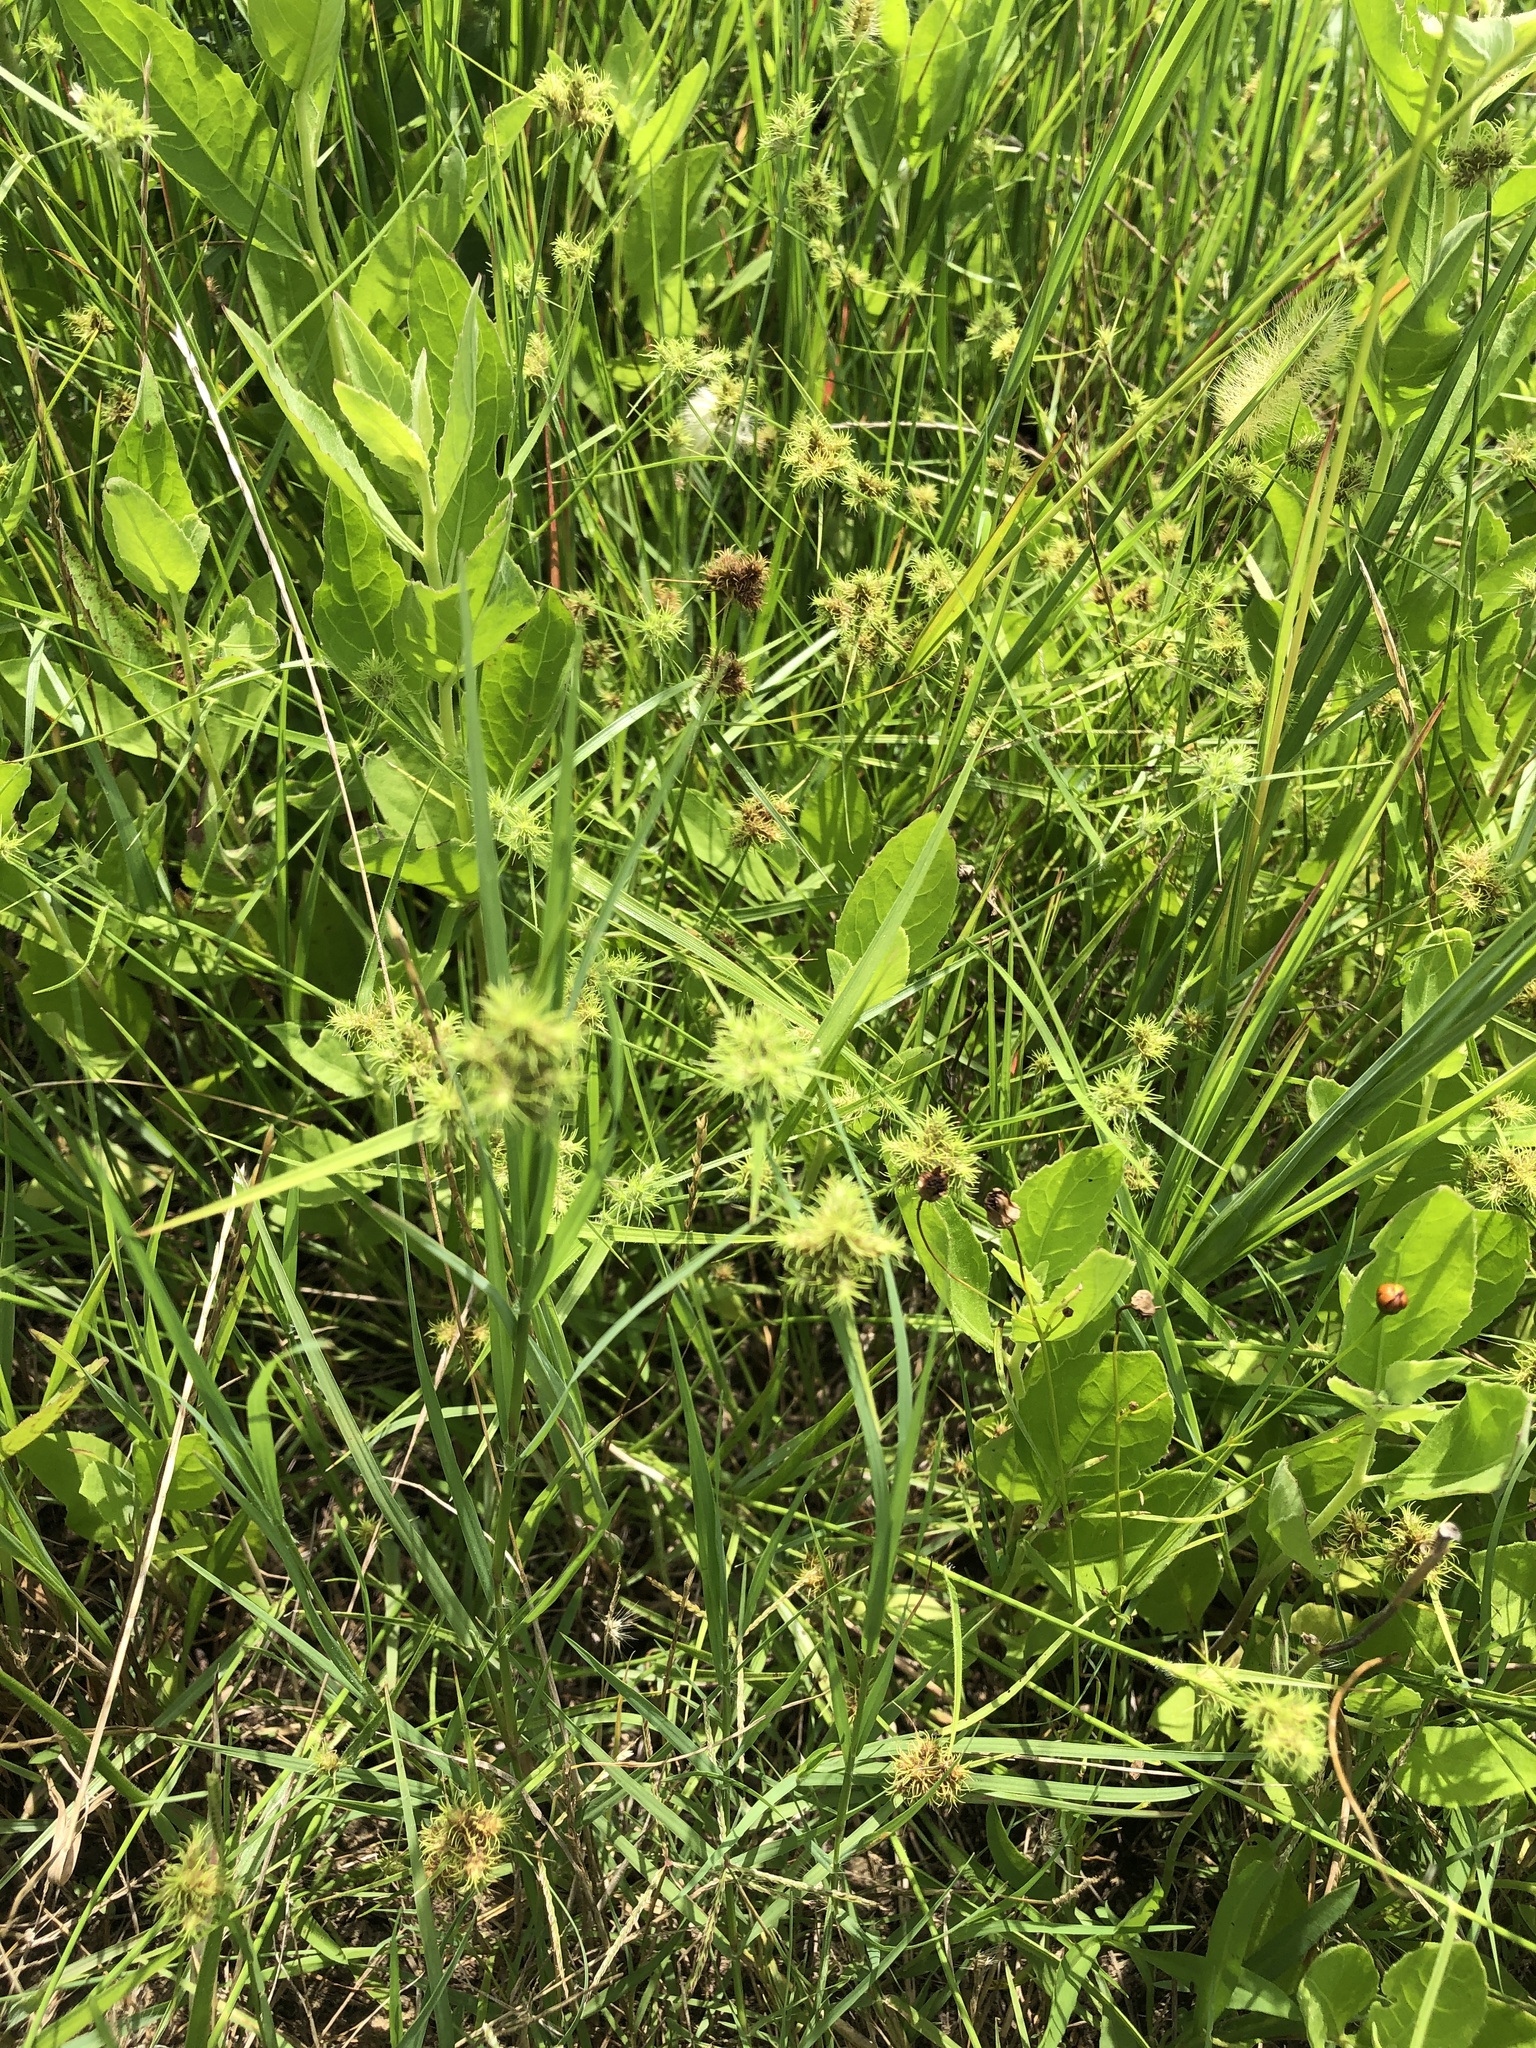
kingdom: Plantae
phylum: Tracheophyta
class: Liliopsida
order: Poales
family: Cyperaceae
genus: Fuirena
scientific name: Fuirena simplex
